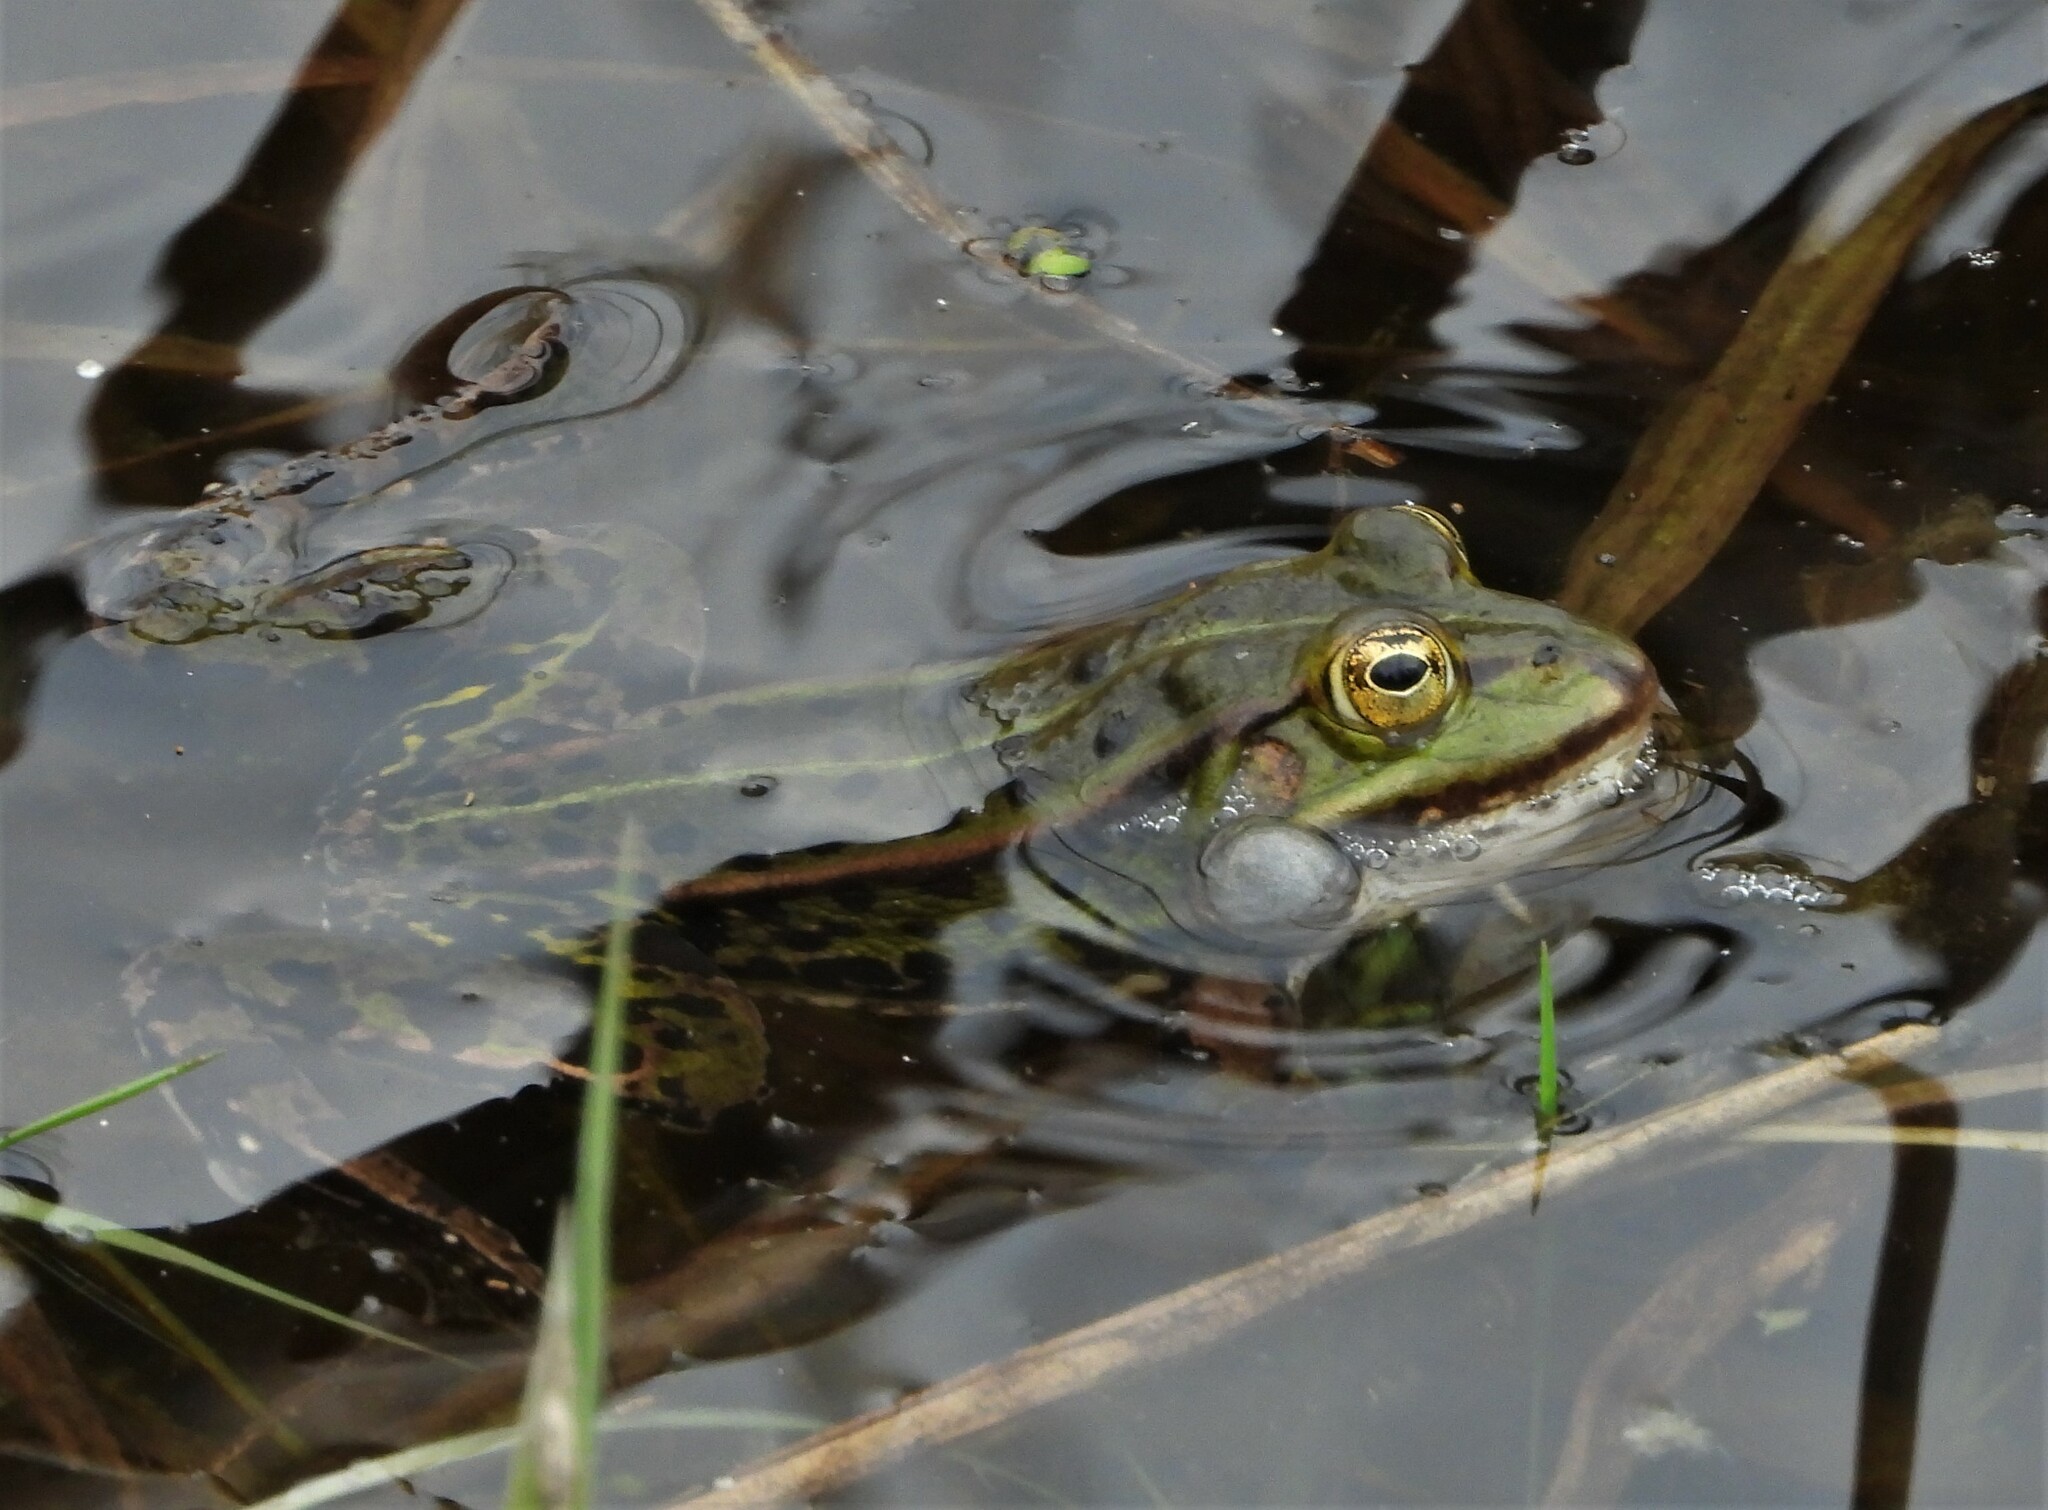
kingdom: Animalia
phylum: Chordata
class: Amphibia
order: Anura
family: Ranidae
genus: Pelophylax
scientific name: Pelophylax lessonae
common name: Pool frog
